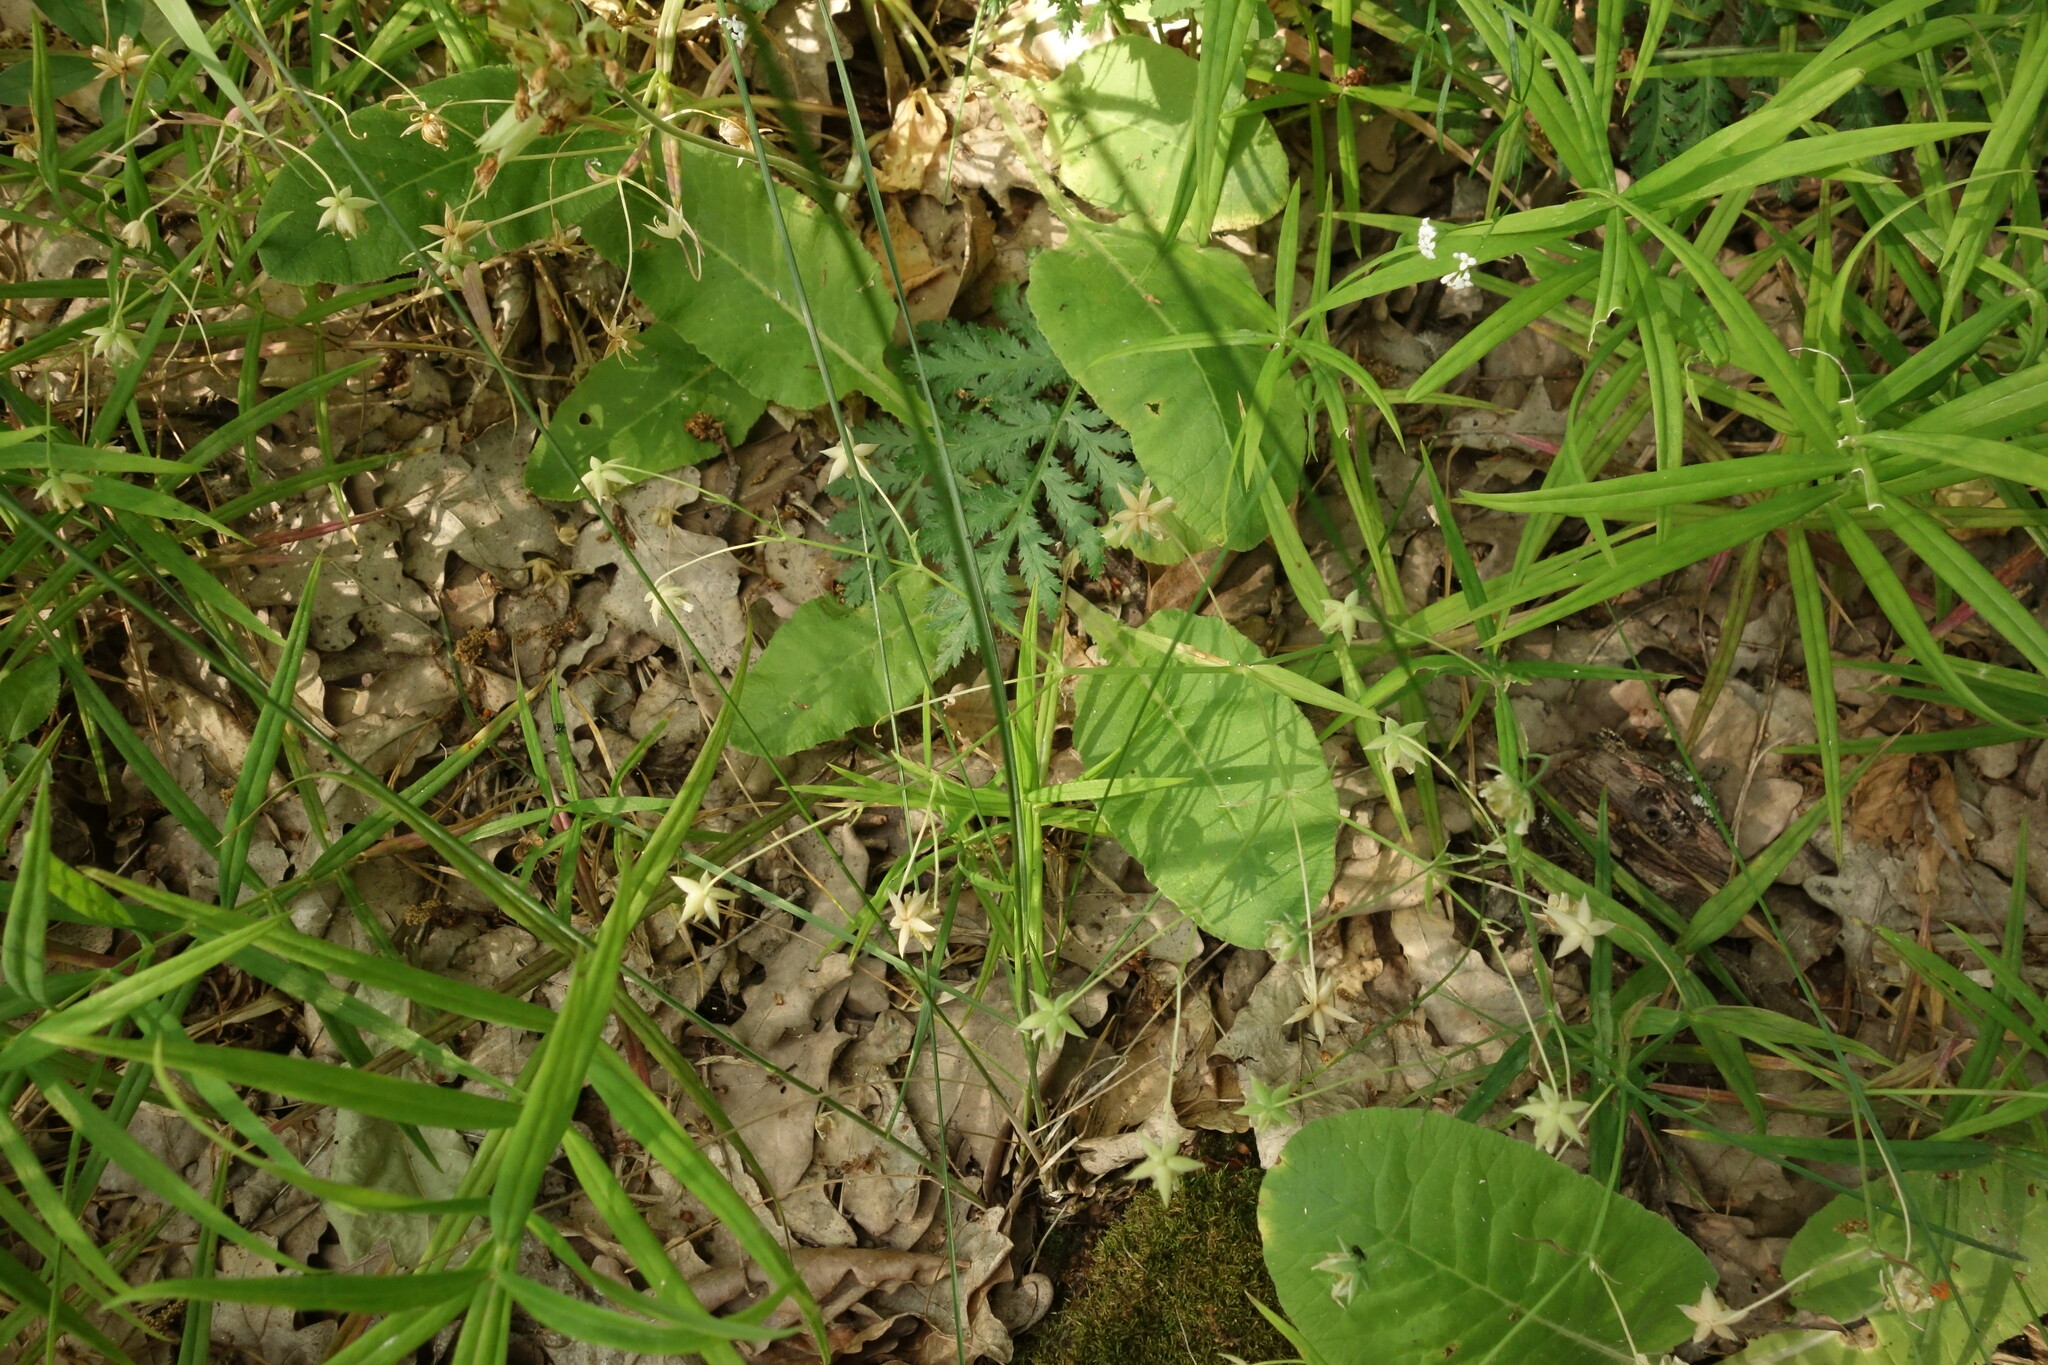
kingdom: Plantae
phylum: Tracheophyta
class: Magnoliopsida
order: Caryophyllales
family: Caryophyllaceae
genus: Rabelera
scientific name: Rabelera holostea
